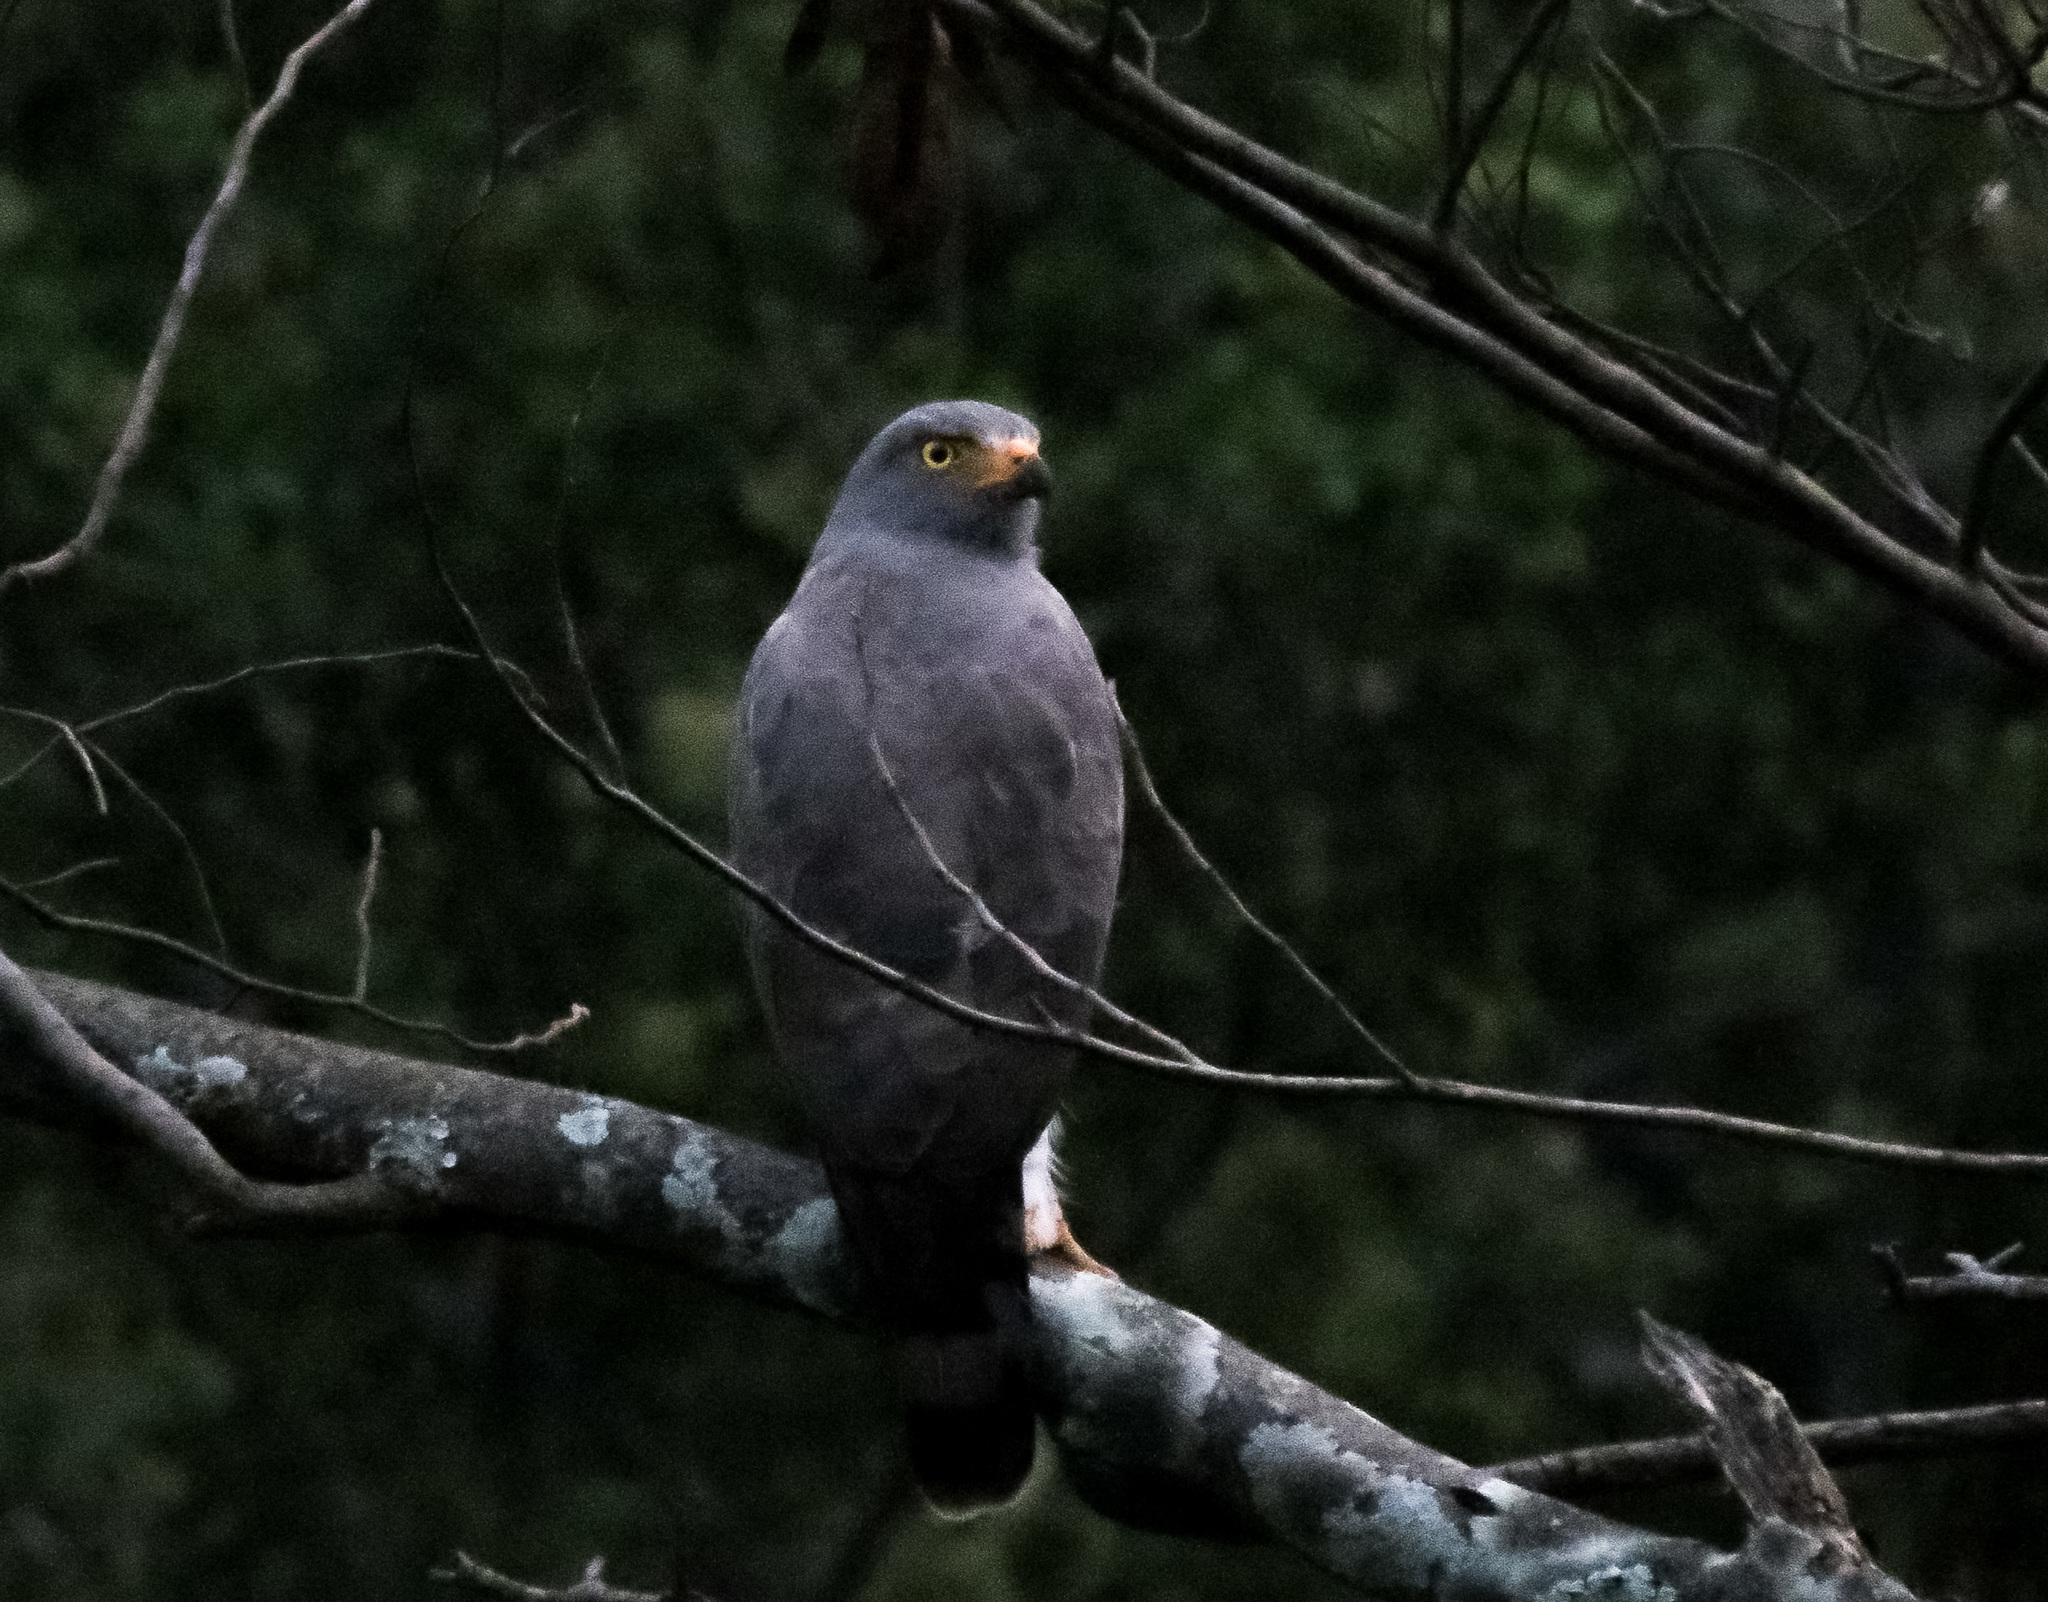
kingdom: Animalia
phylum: Chordata
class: Aves
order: Accipitriformes
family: Accipitridae
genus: Rupornis
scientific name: Rupornis magnirostris
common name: Roadside hawk
